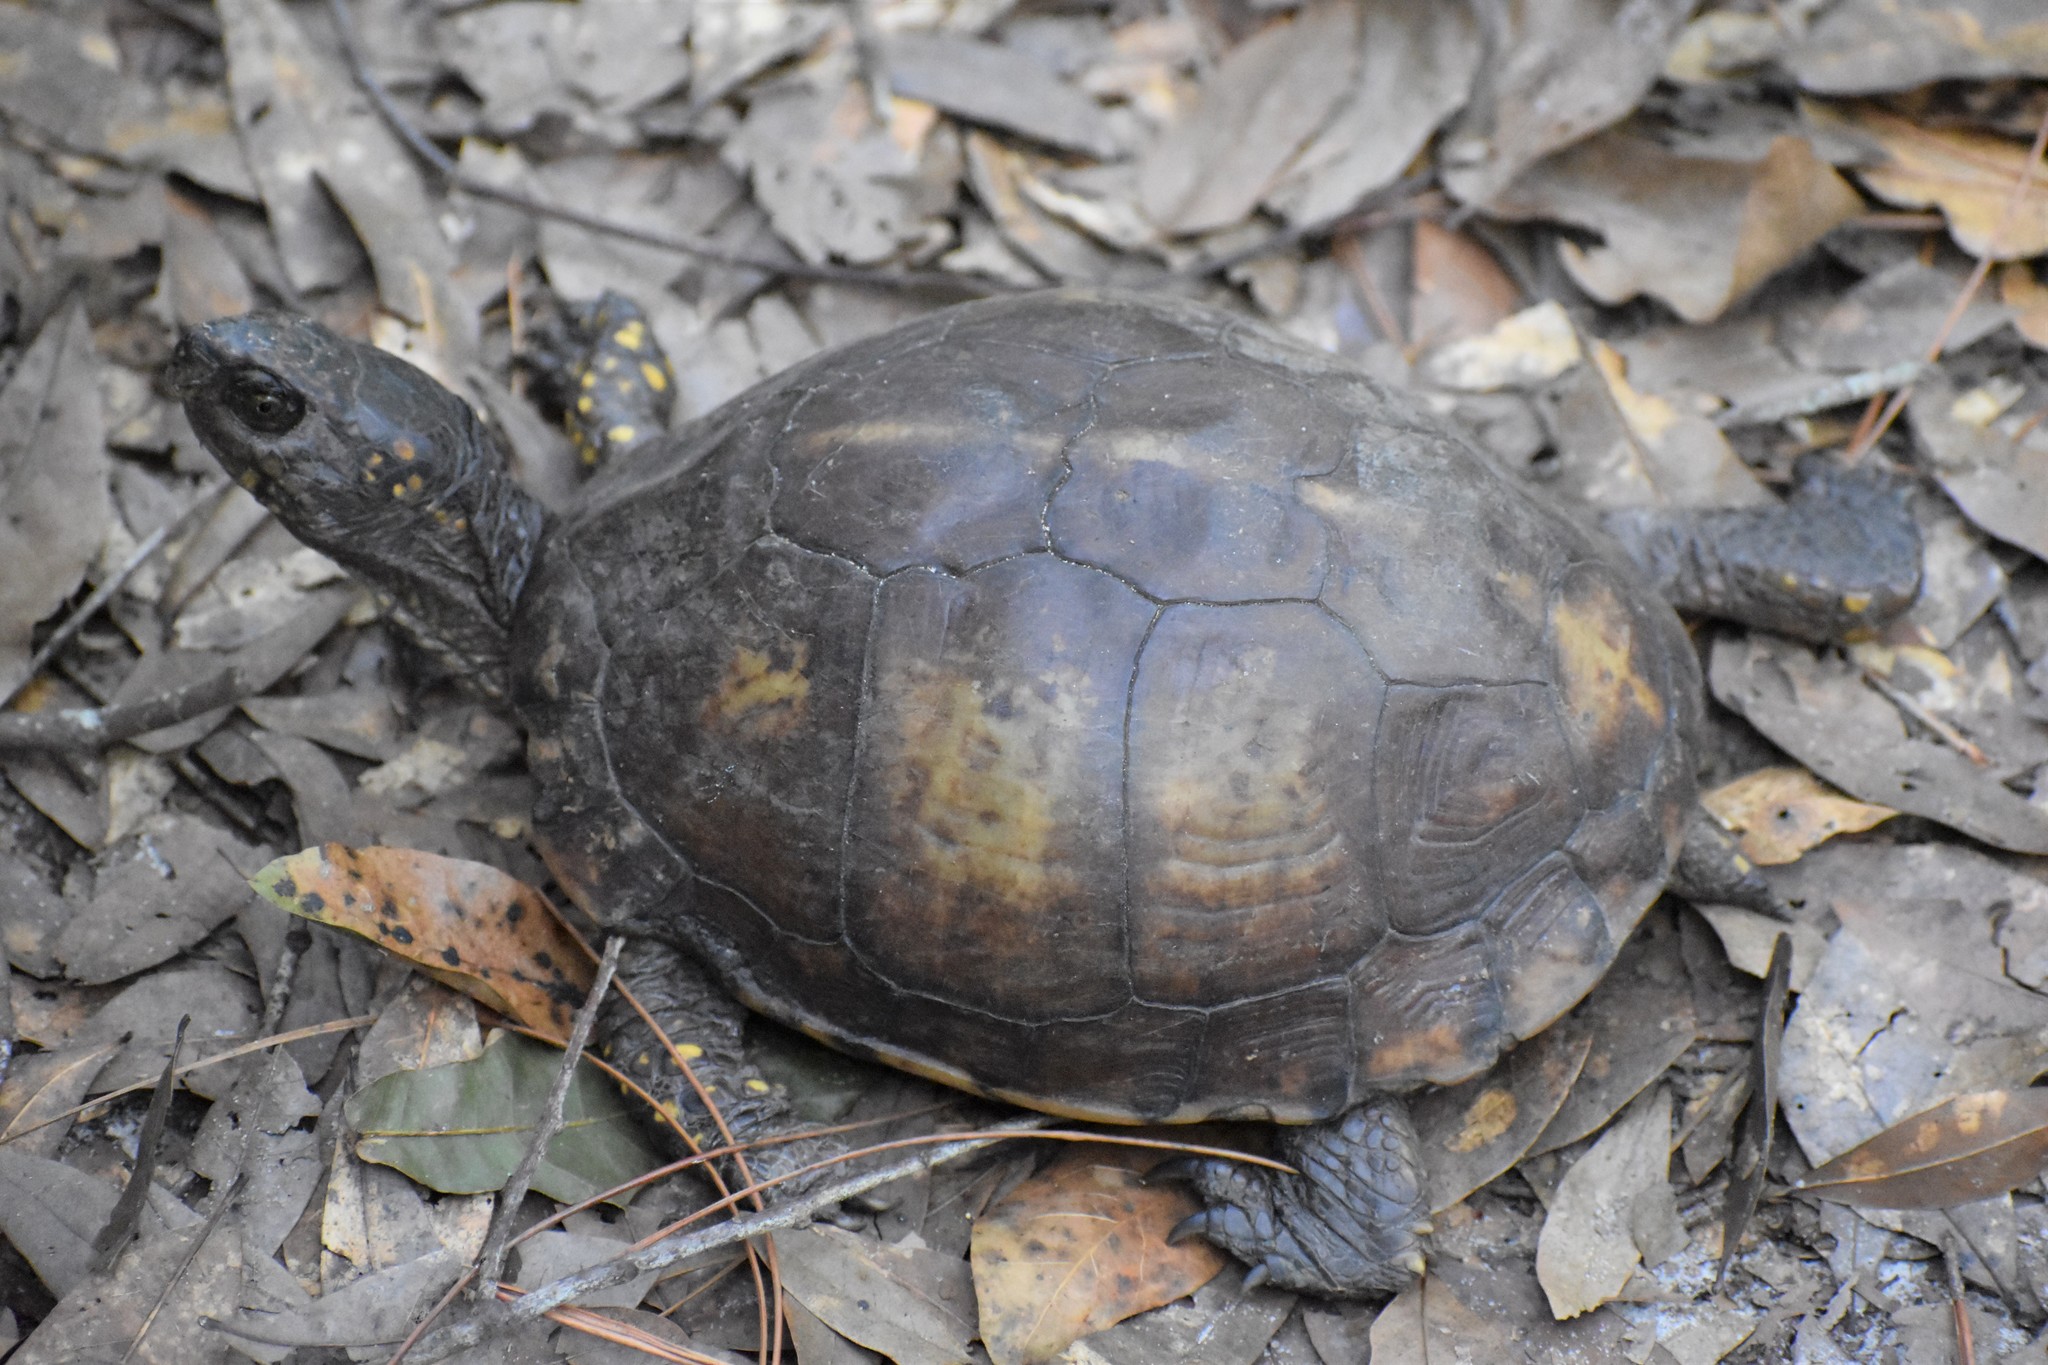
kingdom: Animalia
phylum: Chordata
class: Testudines
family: Emydidae
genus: Terrapene
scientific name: Terrapene carolina
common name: Common box turtle
